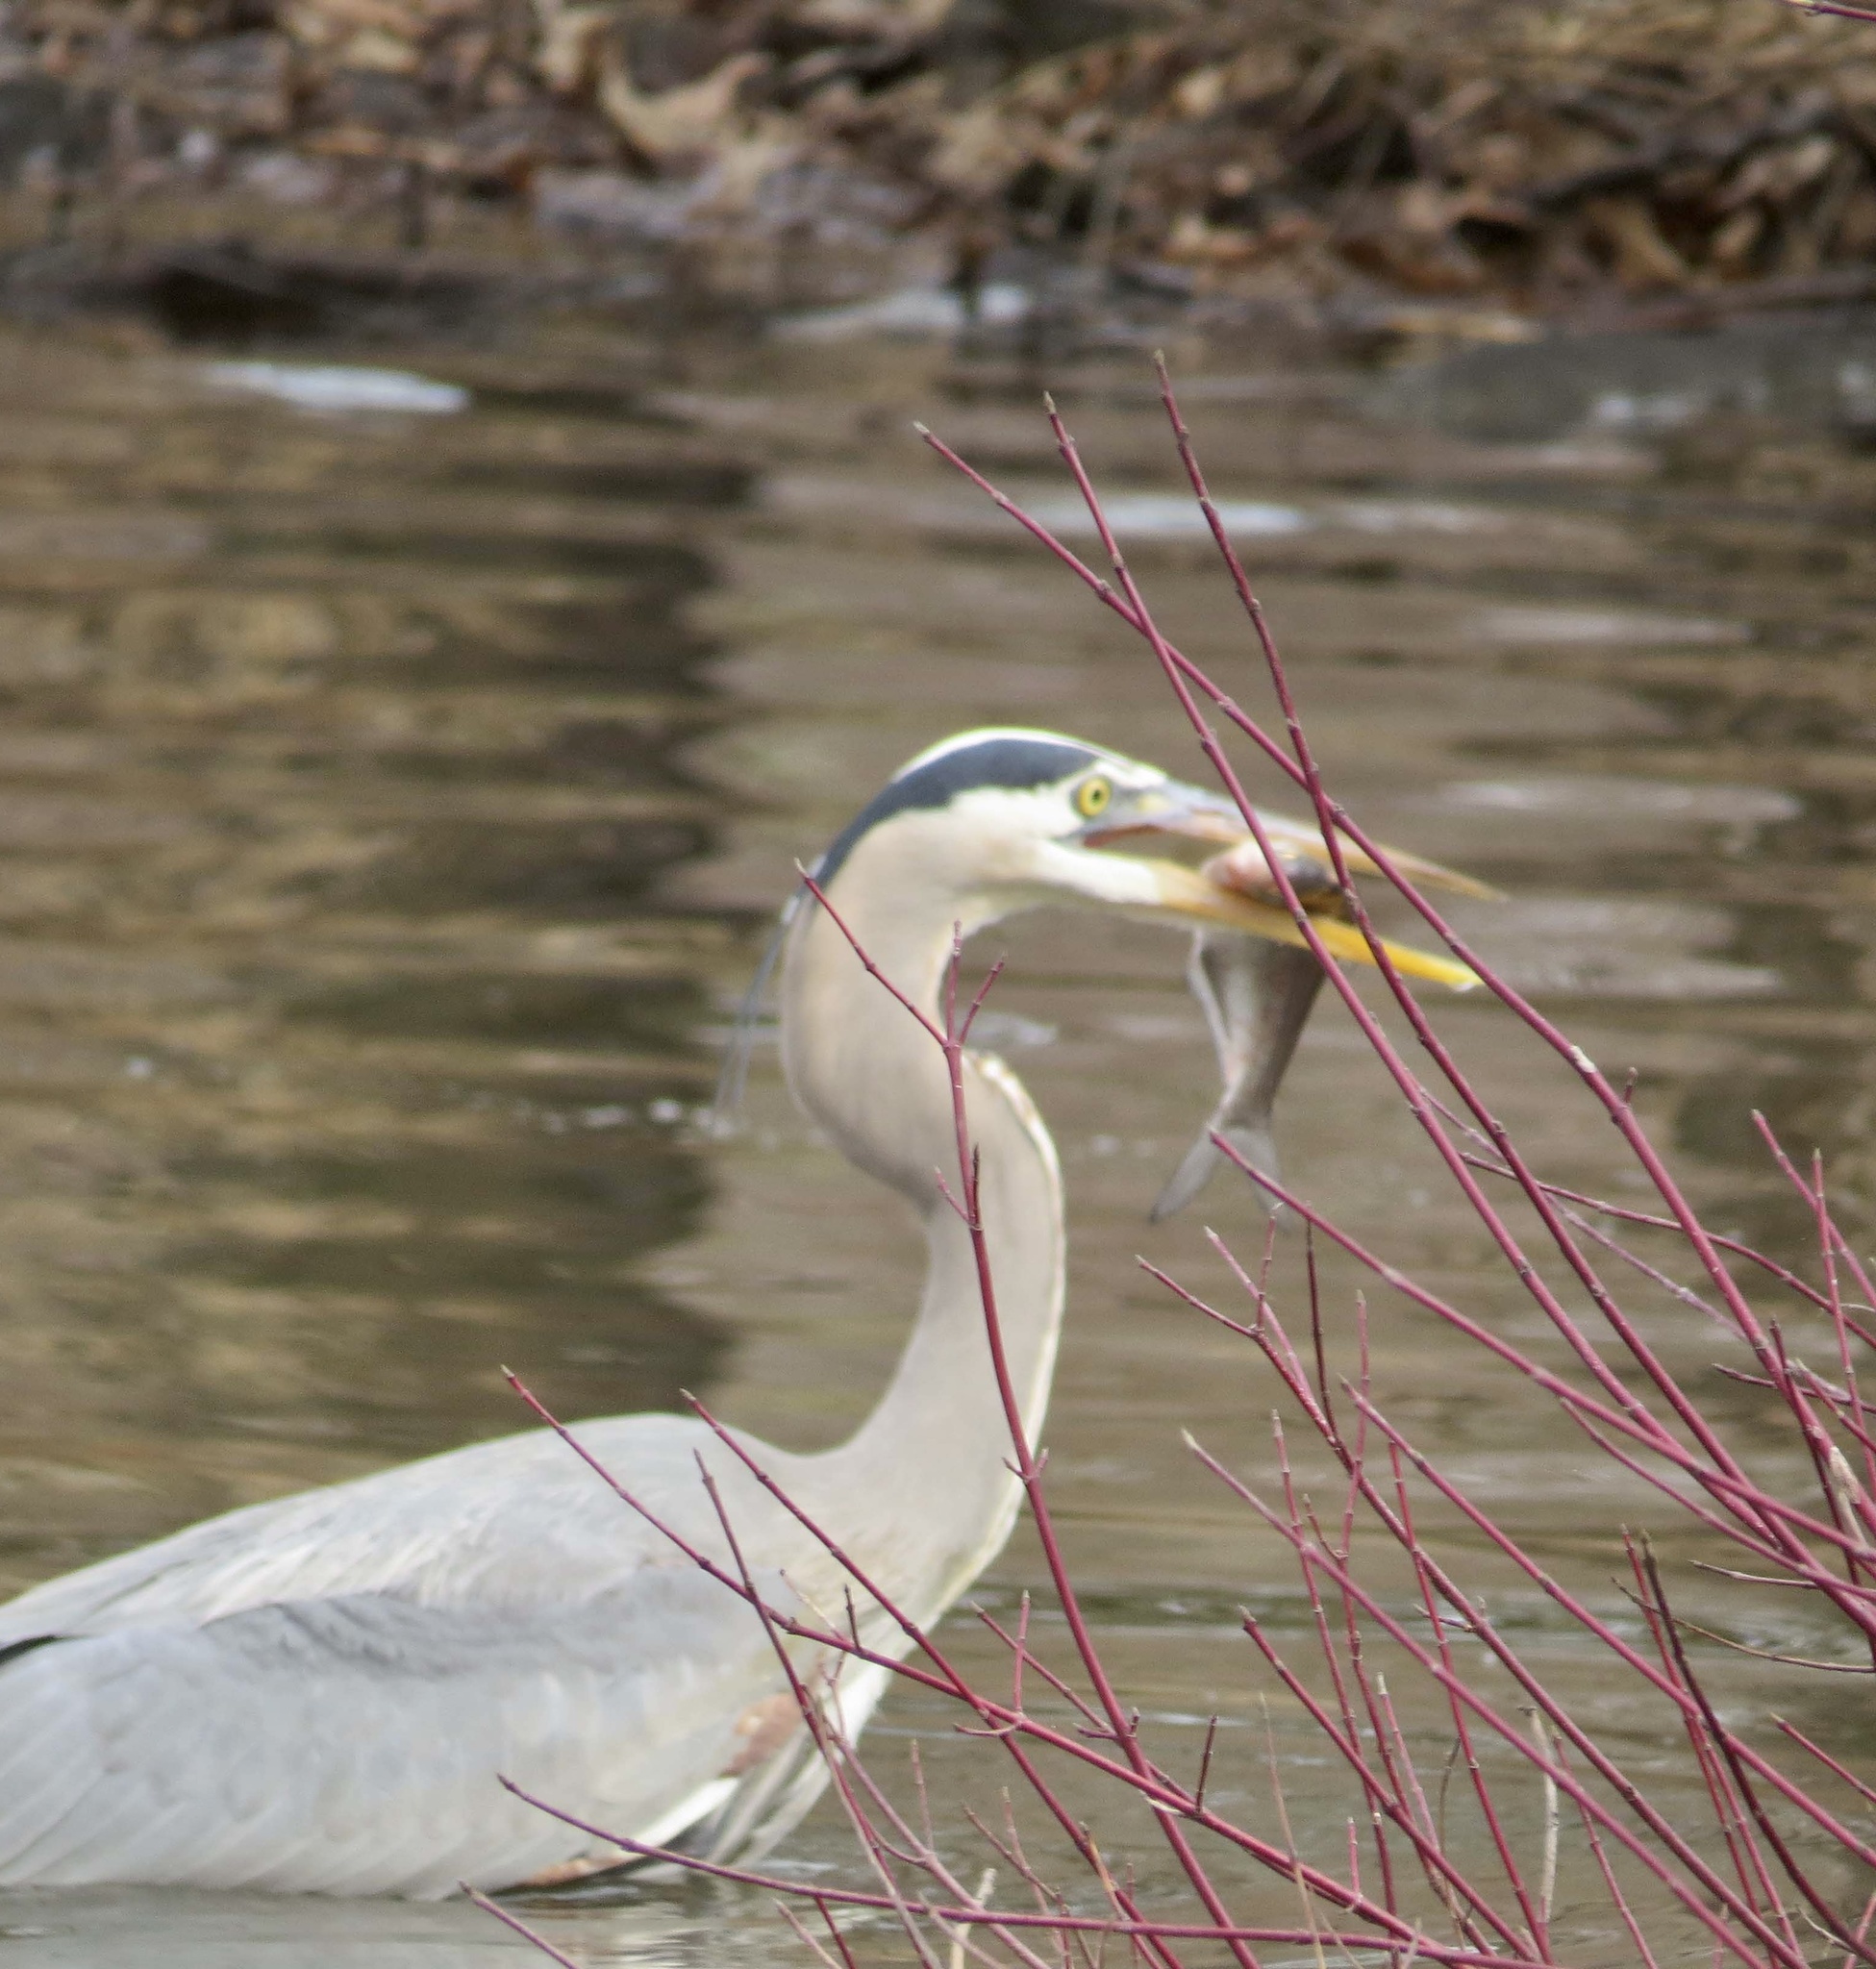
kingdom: Animalia
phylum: Chordata
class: Aves
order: Pelecaniformes
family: Ardeidae
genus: Ardea
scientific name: Ardea herodias
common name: Great blue heron
